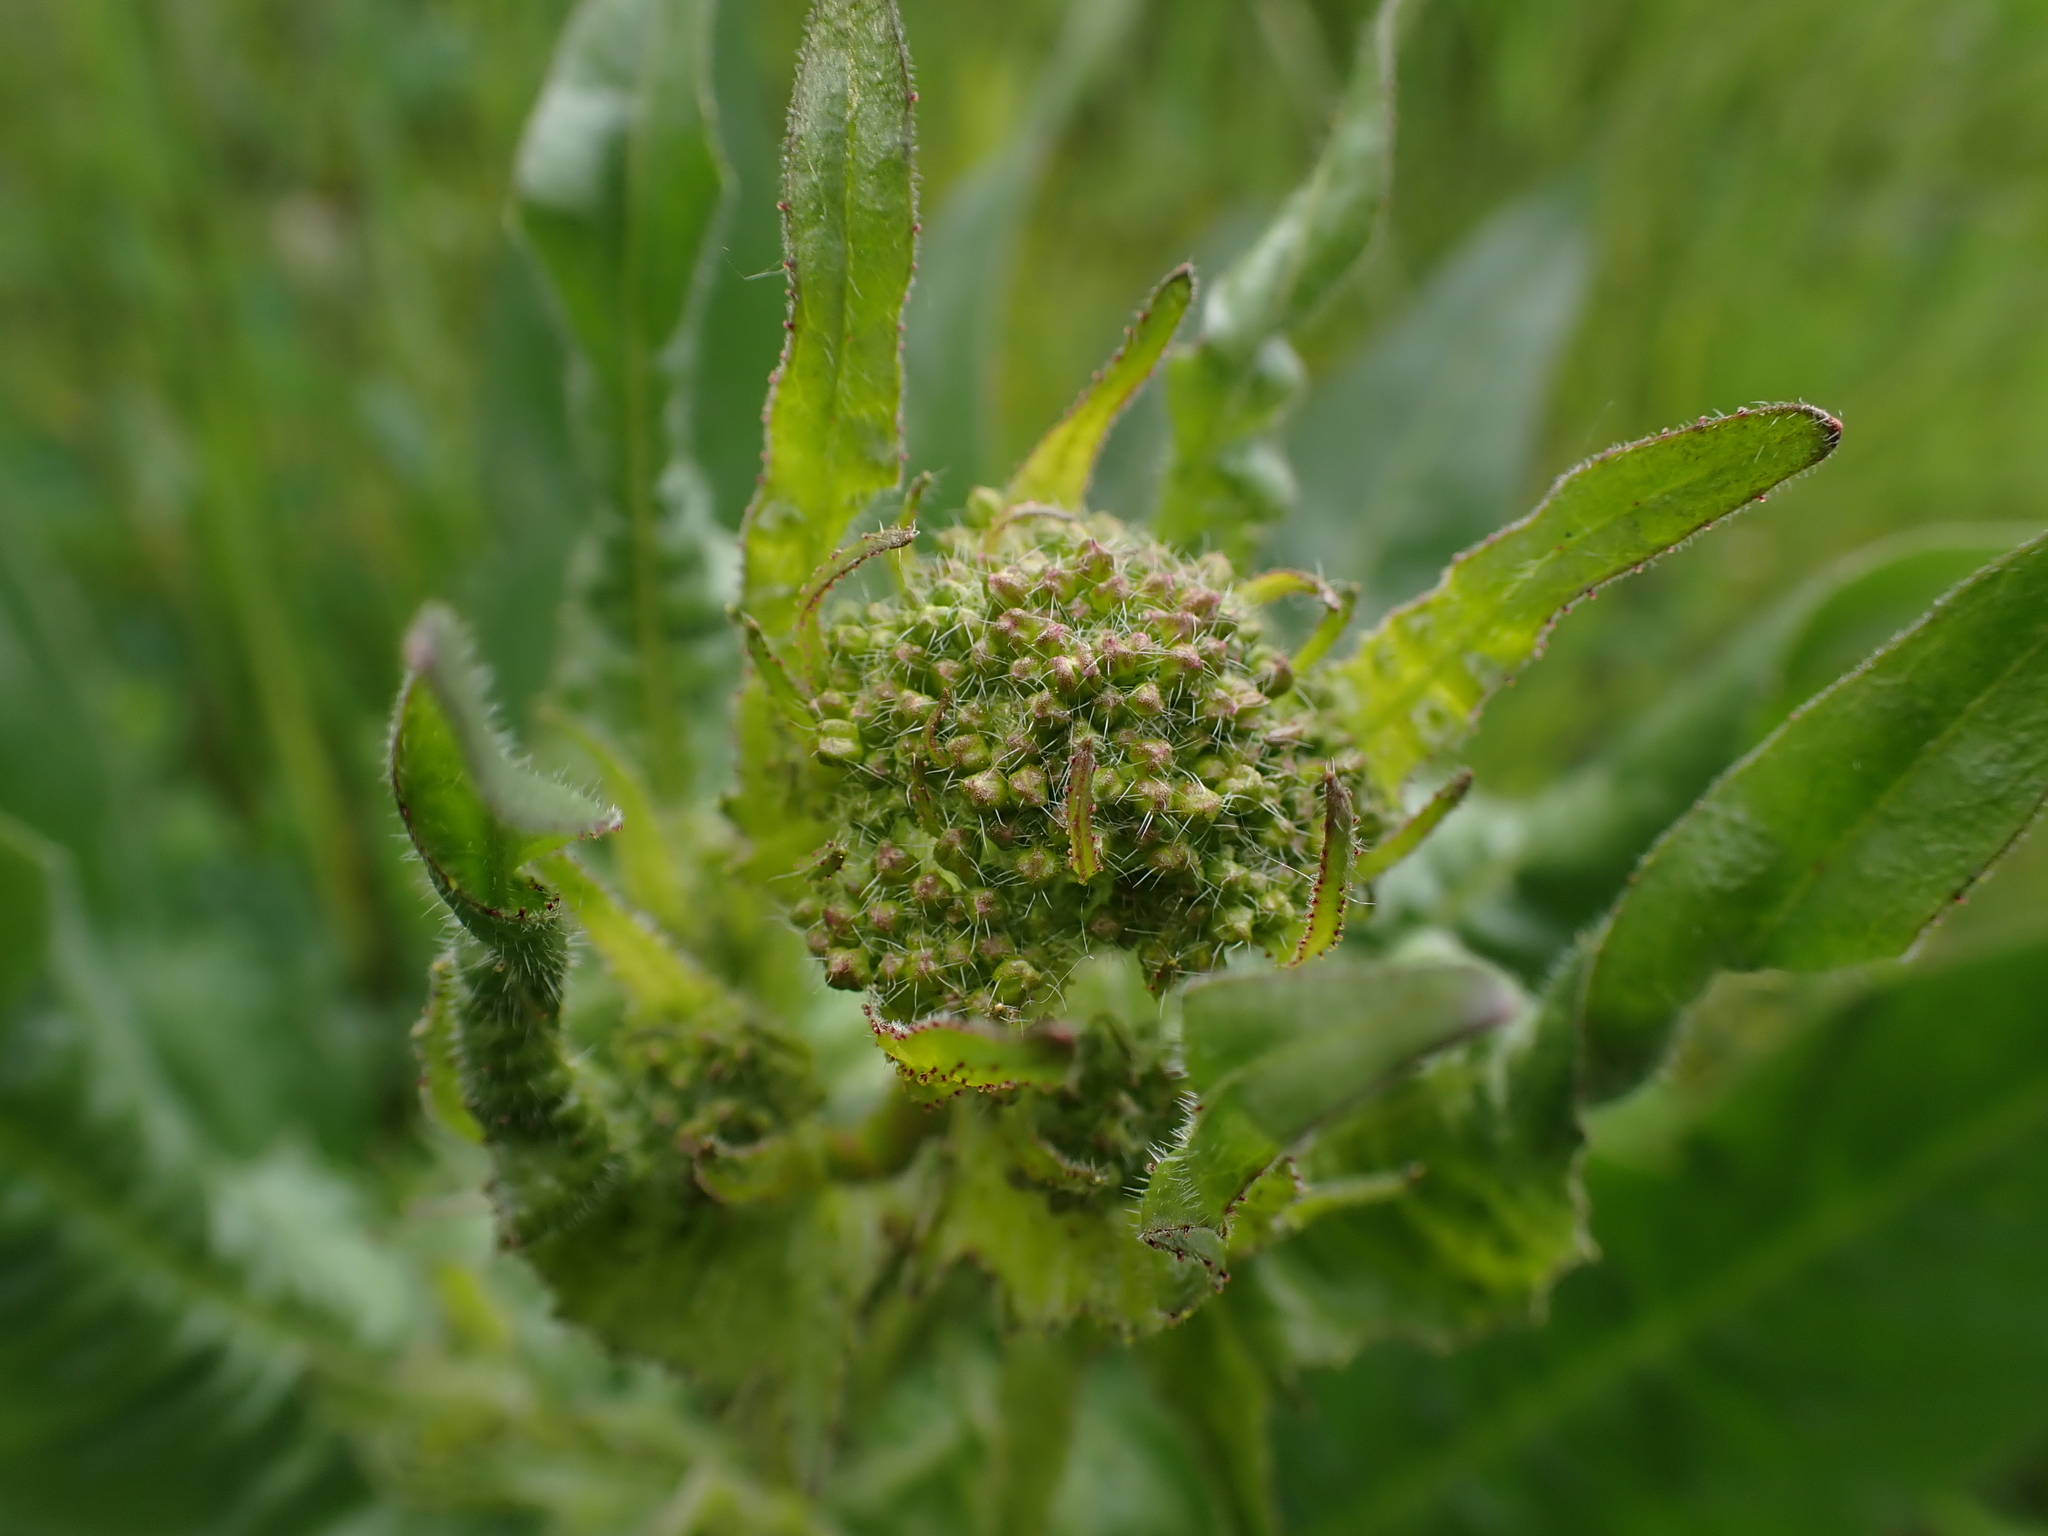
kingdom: Plantae
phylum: Tracheophyta
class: Magnoliopsida
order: Brassicales
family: Brassicaceae
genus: Bunias
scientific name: Bunias orientalis
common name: Warty-cabbage
